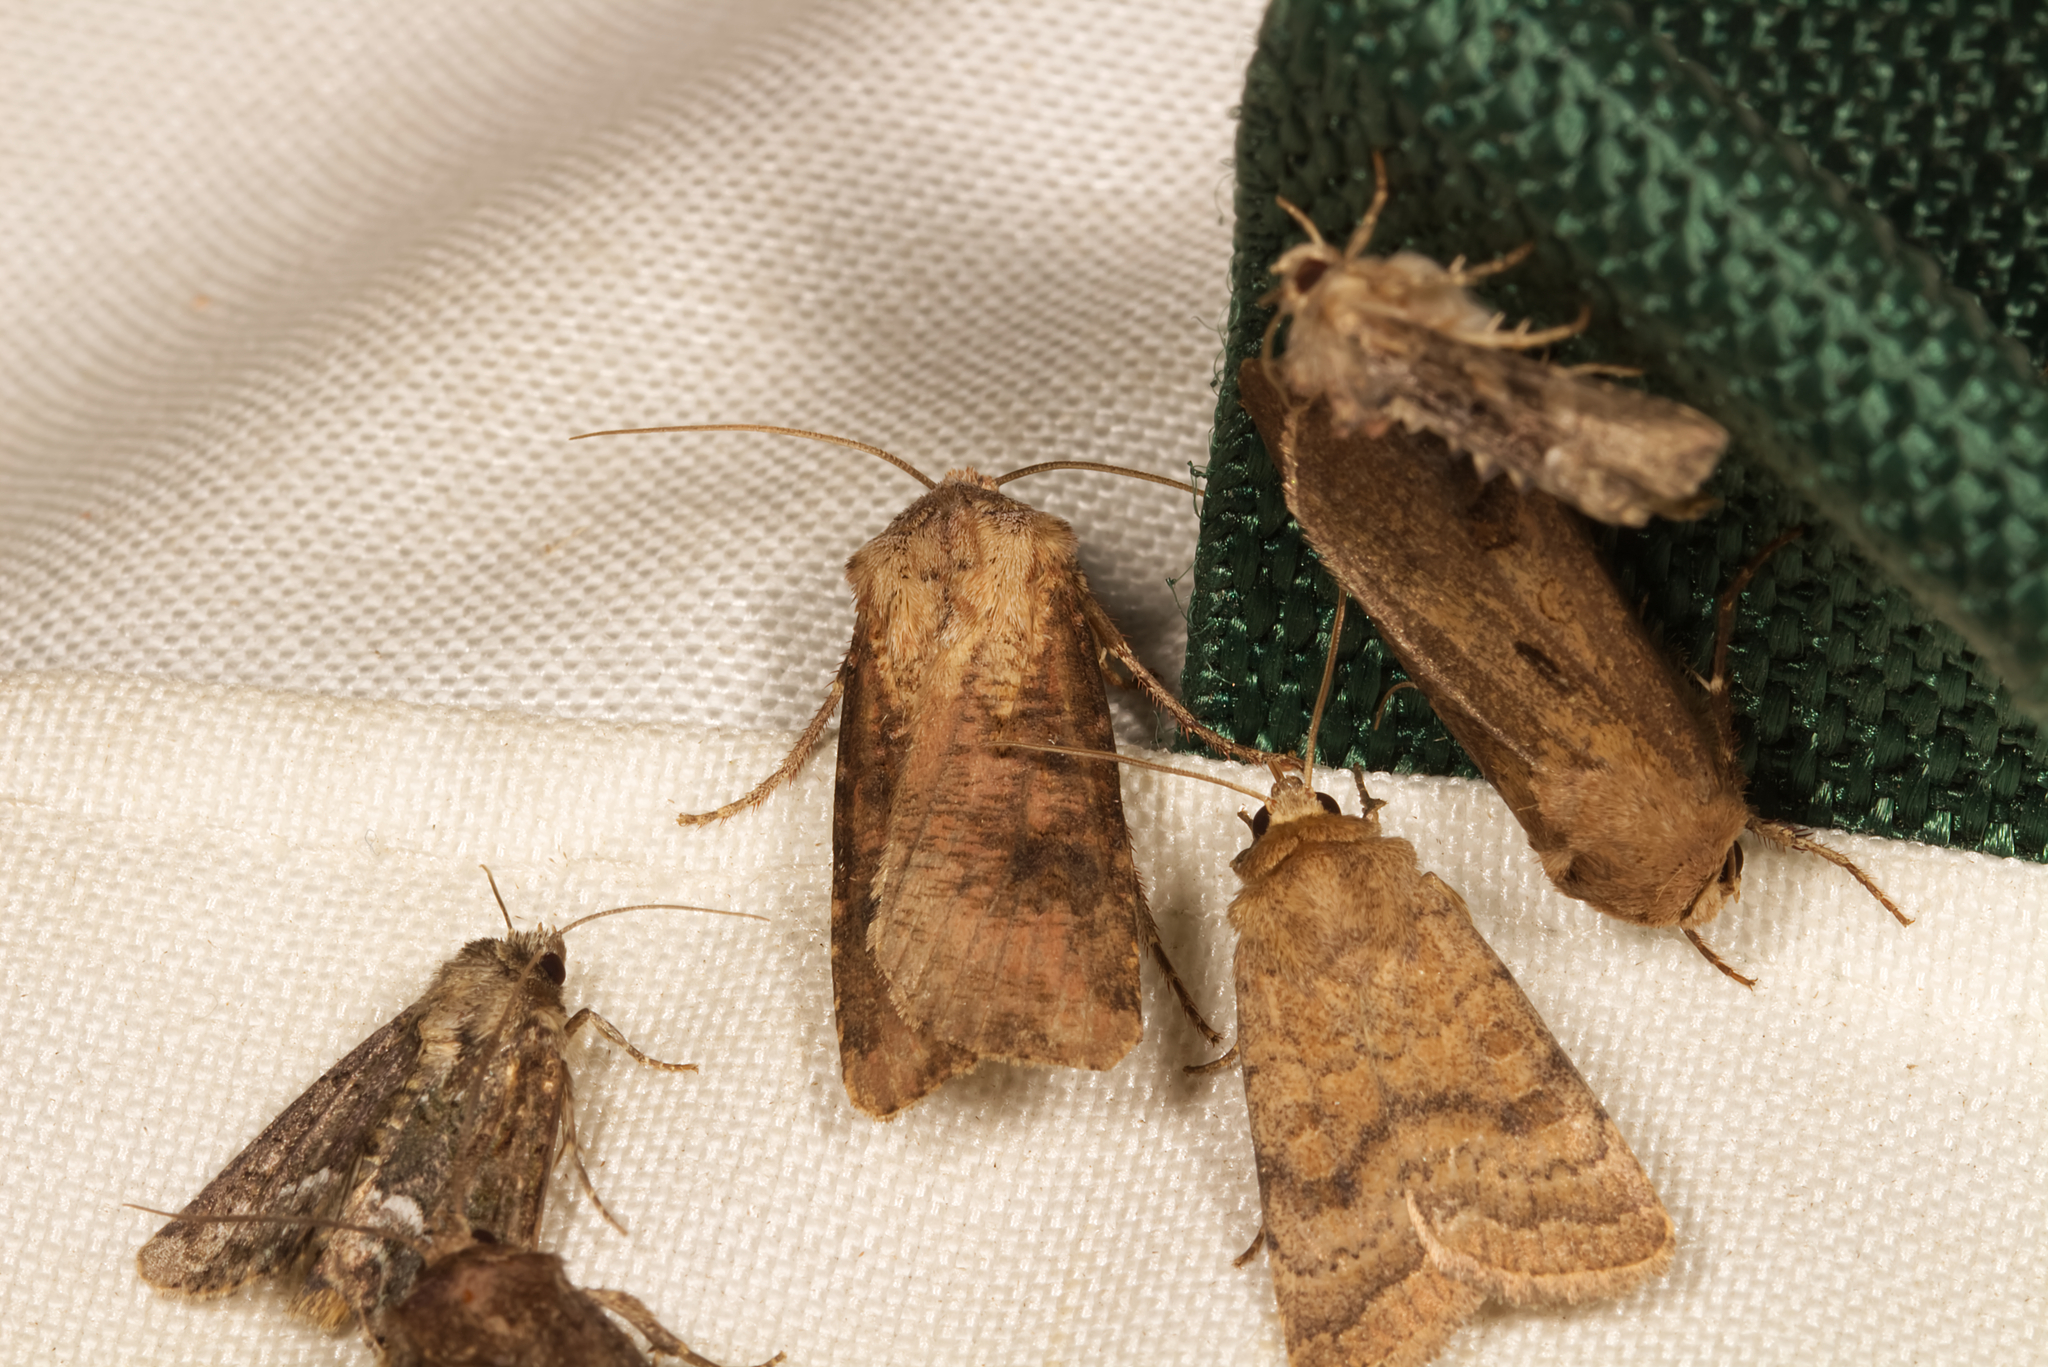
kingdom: Animalia
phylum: Arthropoda
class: Insecta
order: Lepidoptera
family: Noctuidae
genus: Agrotis
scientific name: Agrotis clavis
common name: Heart and club
